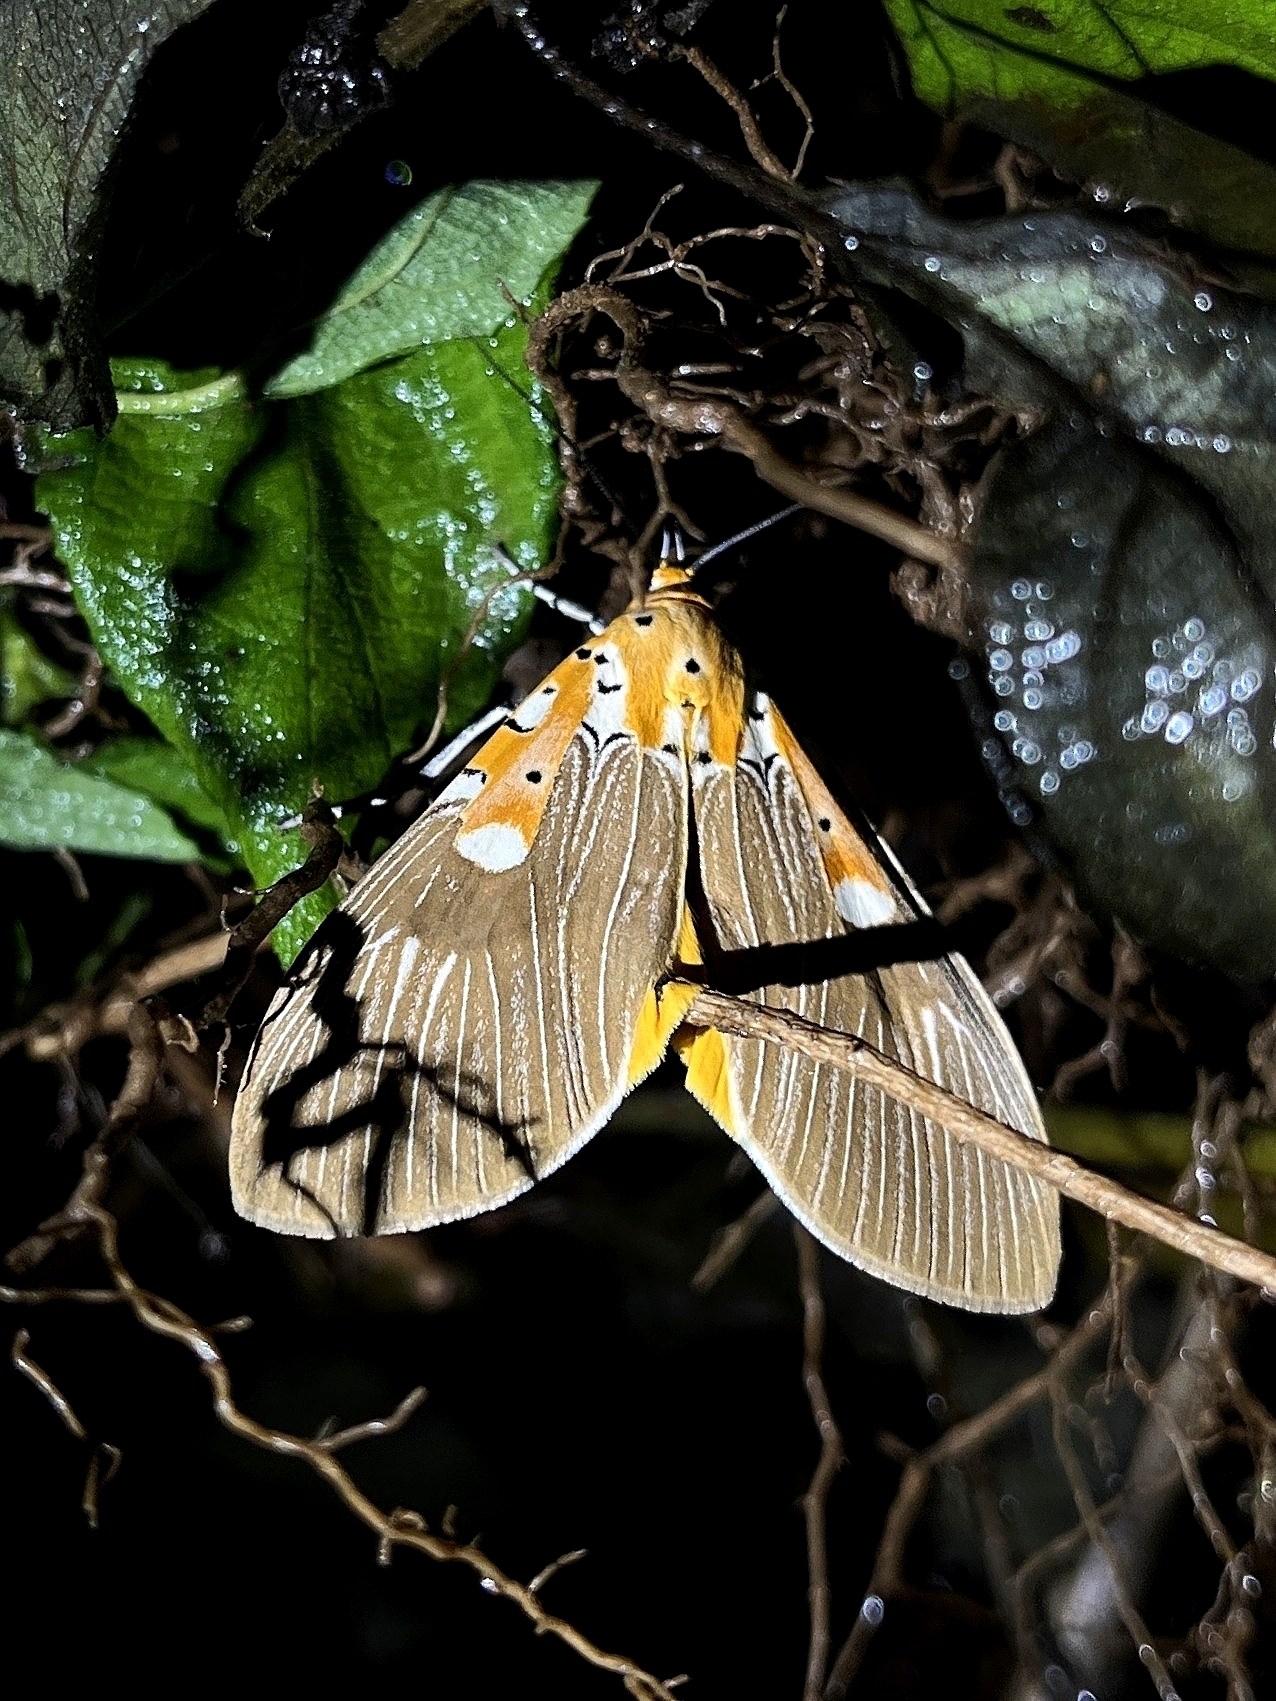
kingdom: Animalia
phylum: Arthropoda
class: Insecta
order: Lepidoptera
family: Erebidae
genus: Asota
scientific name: Asota ficus
